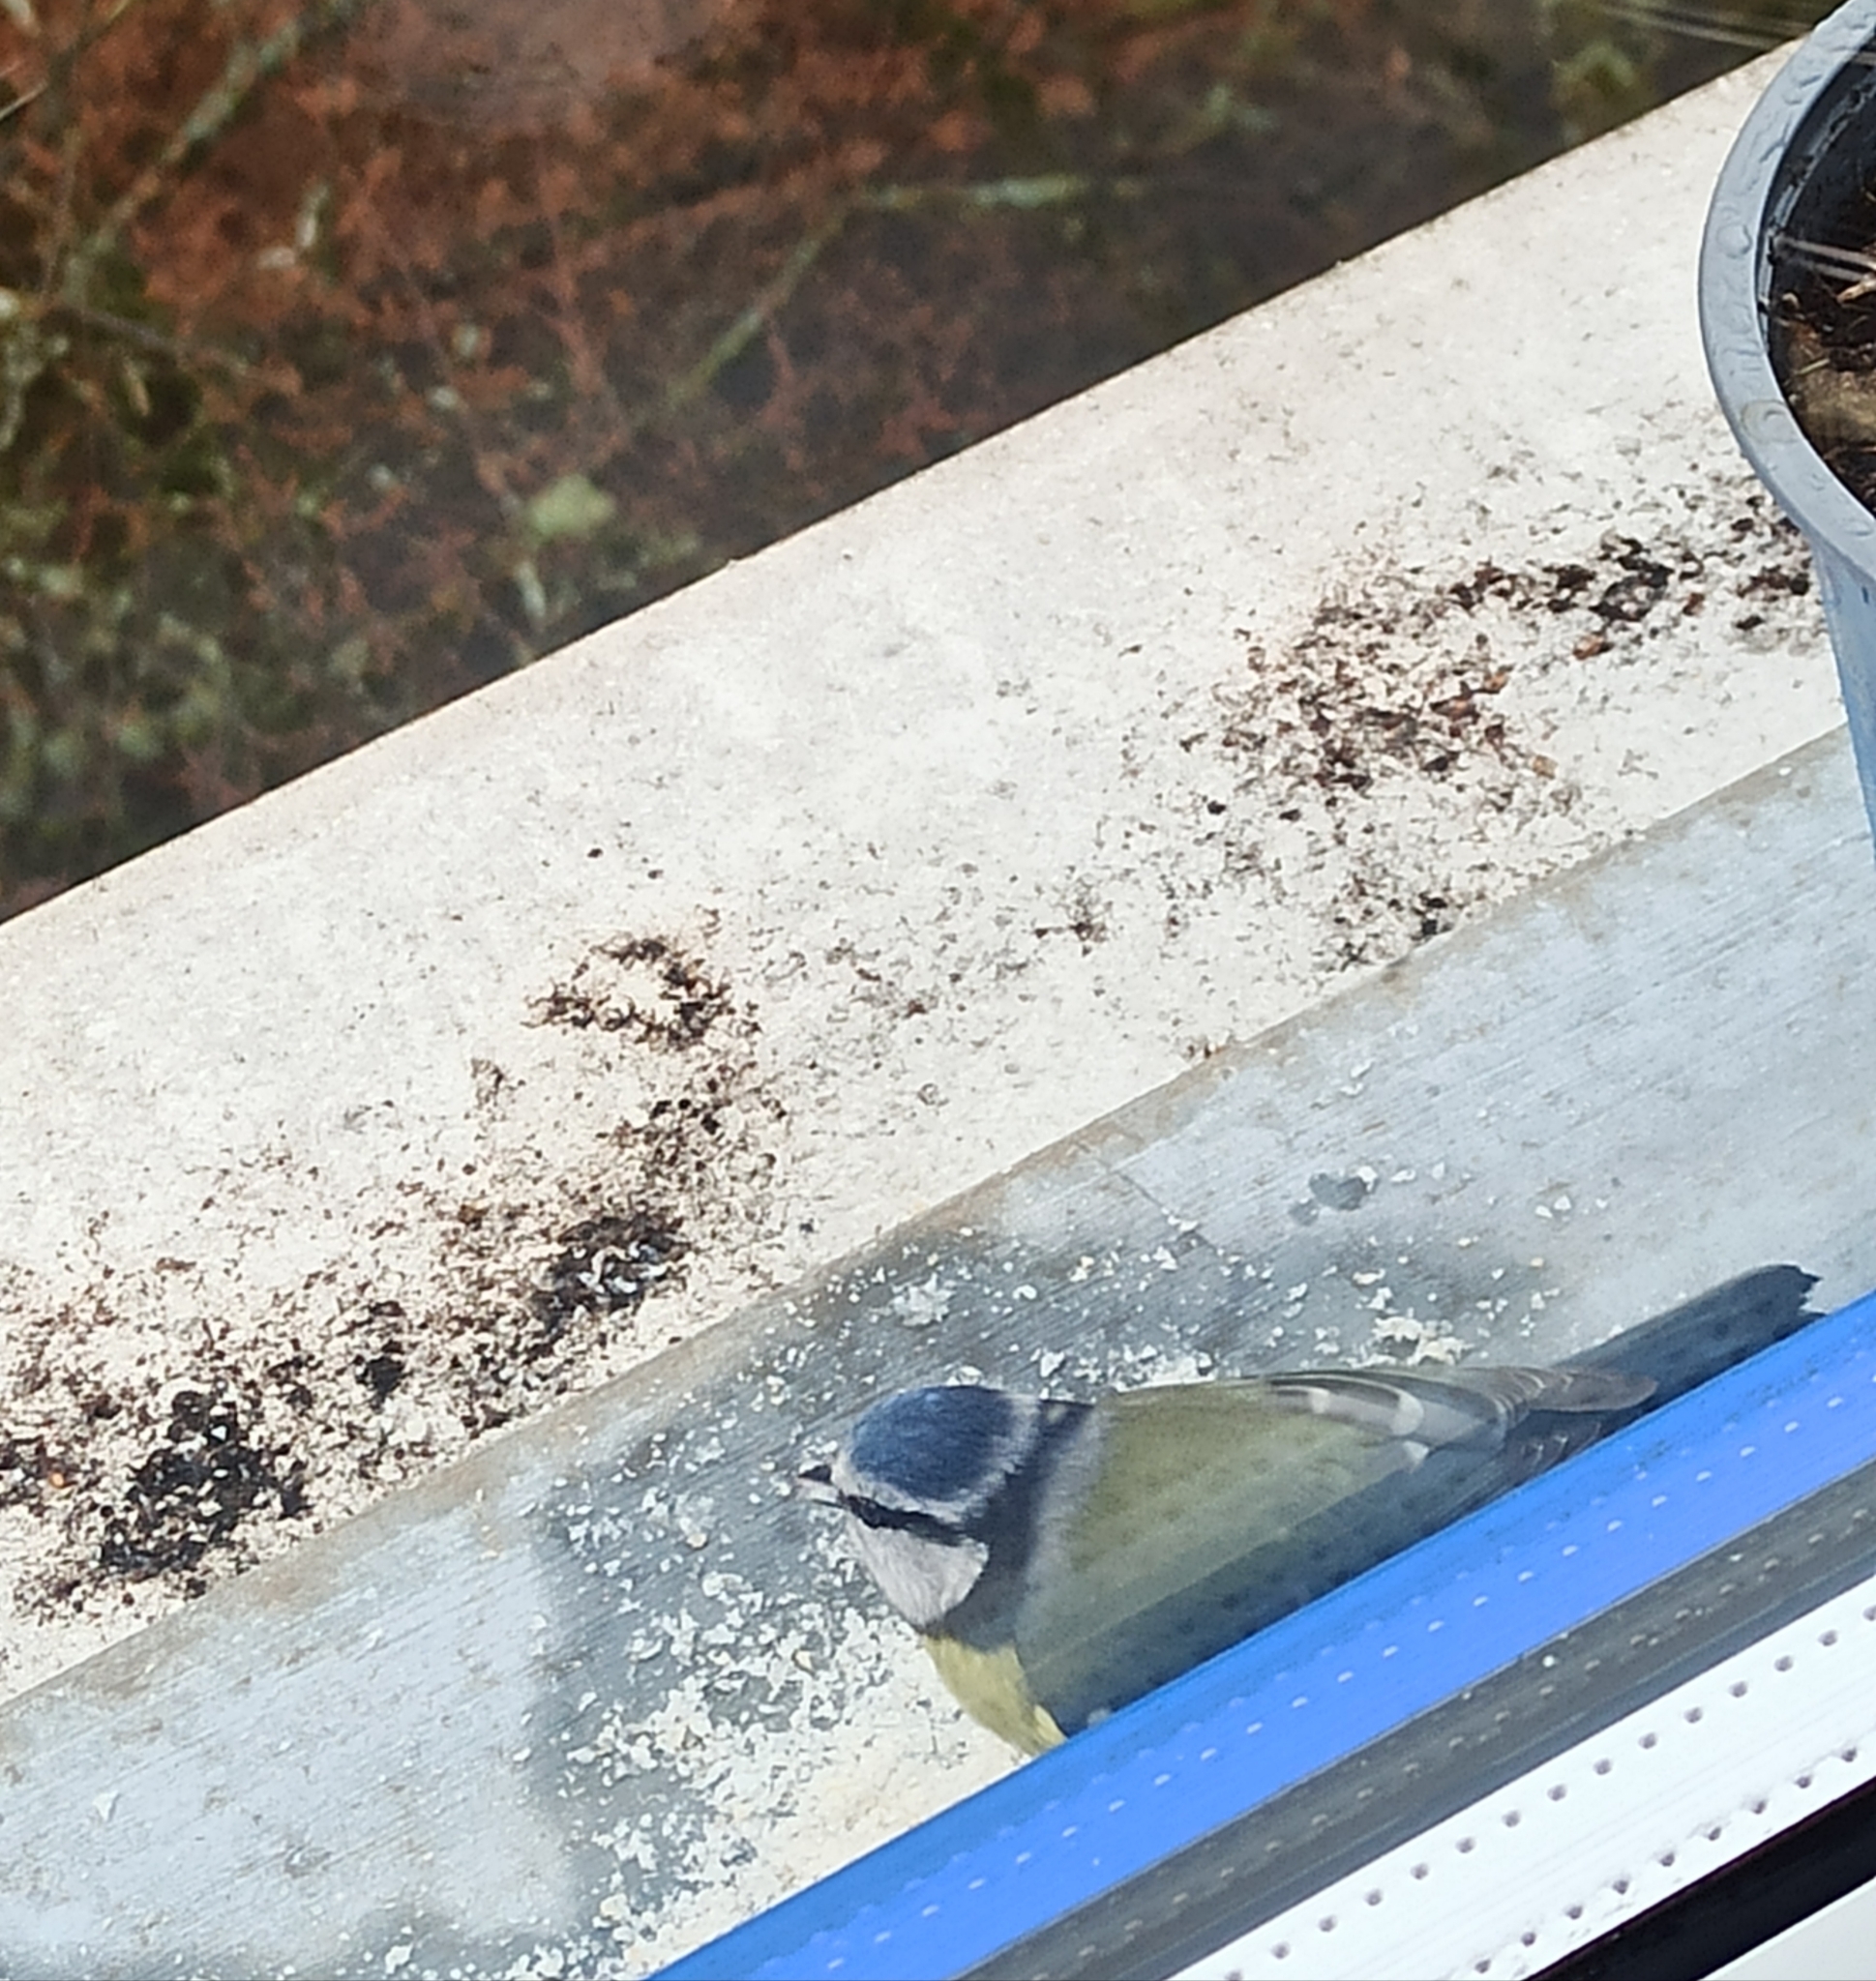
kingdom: Animalia
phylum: Chordata
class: Aves
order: Passeriformes
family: Paridae
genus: Cyanistes
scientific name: Cyanistes caeruleus
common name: Eurasian blue tit
